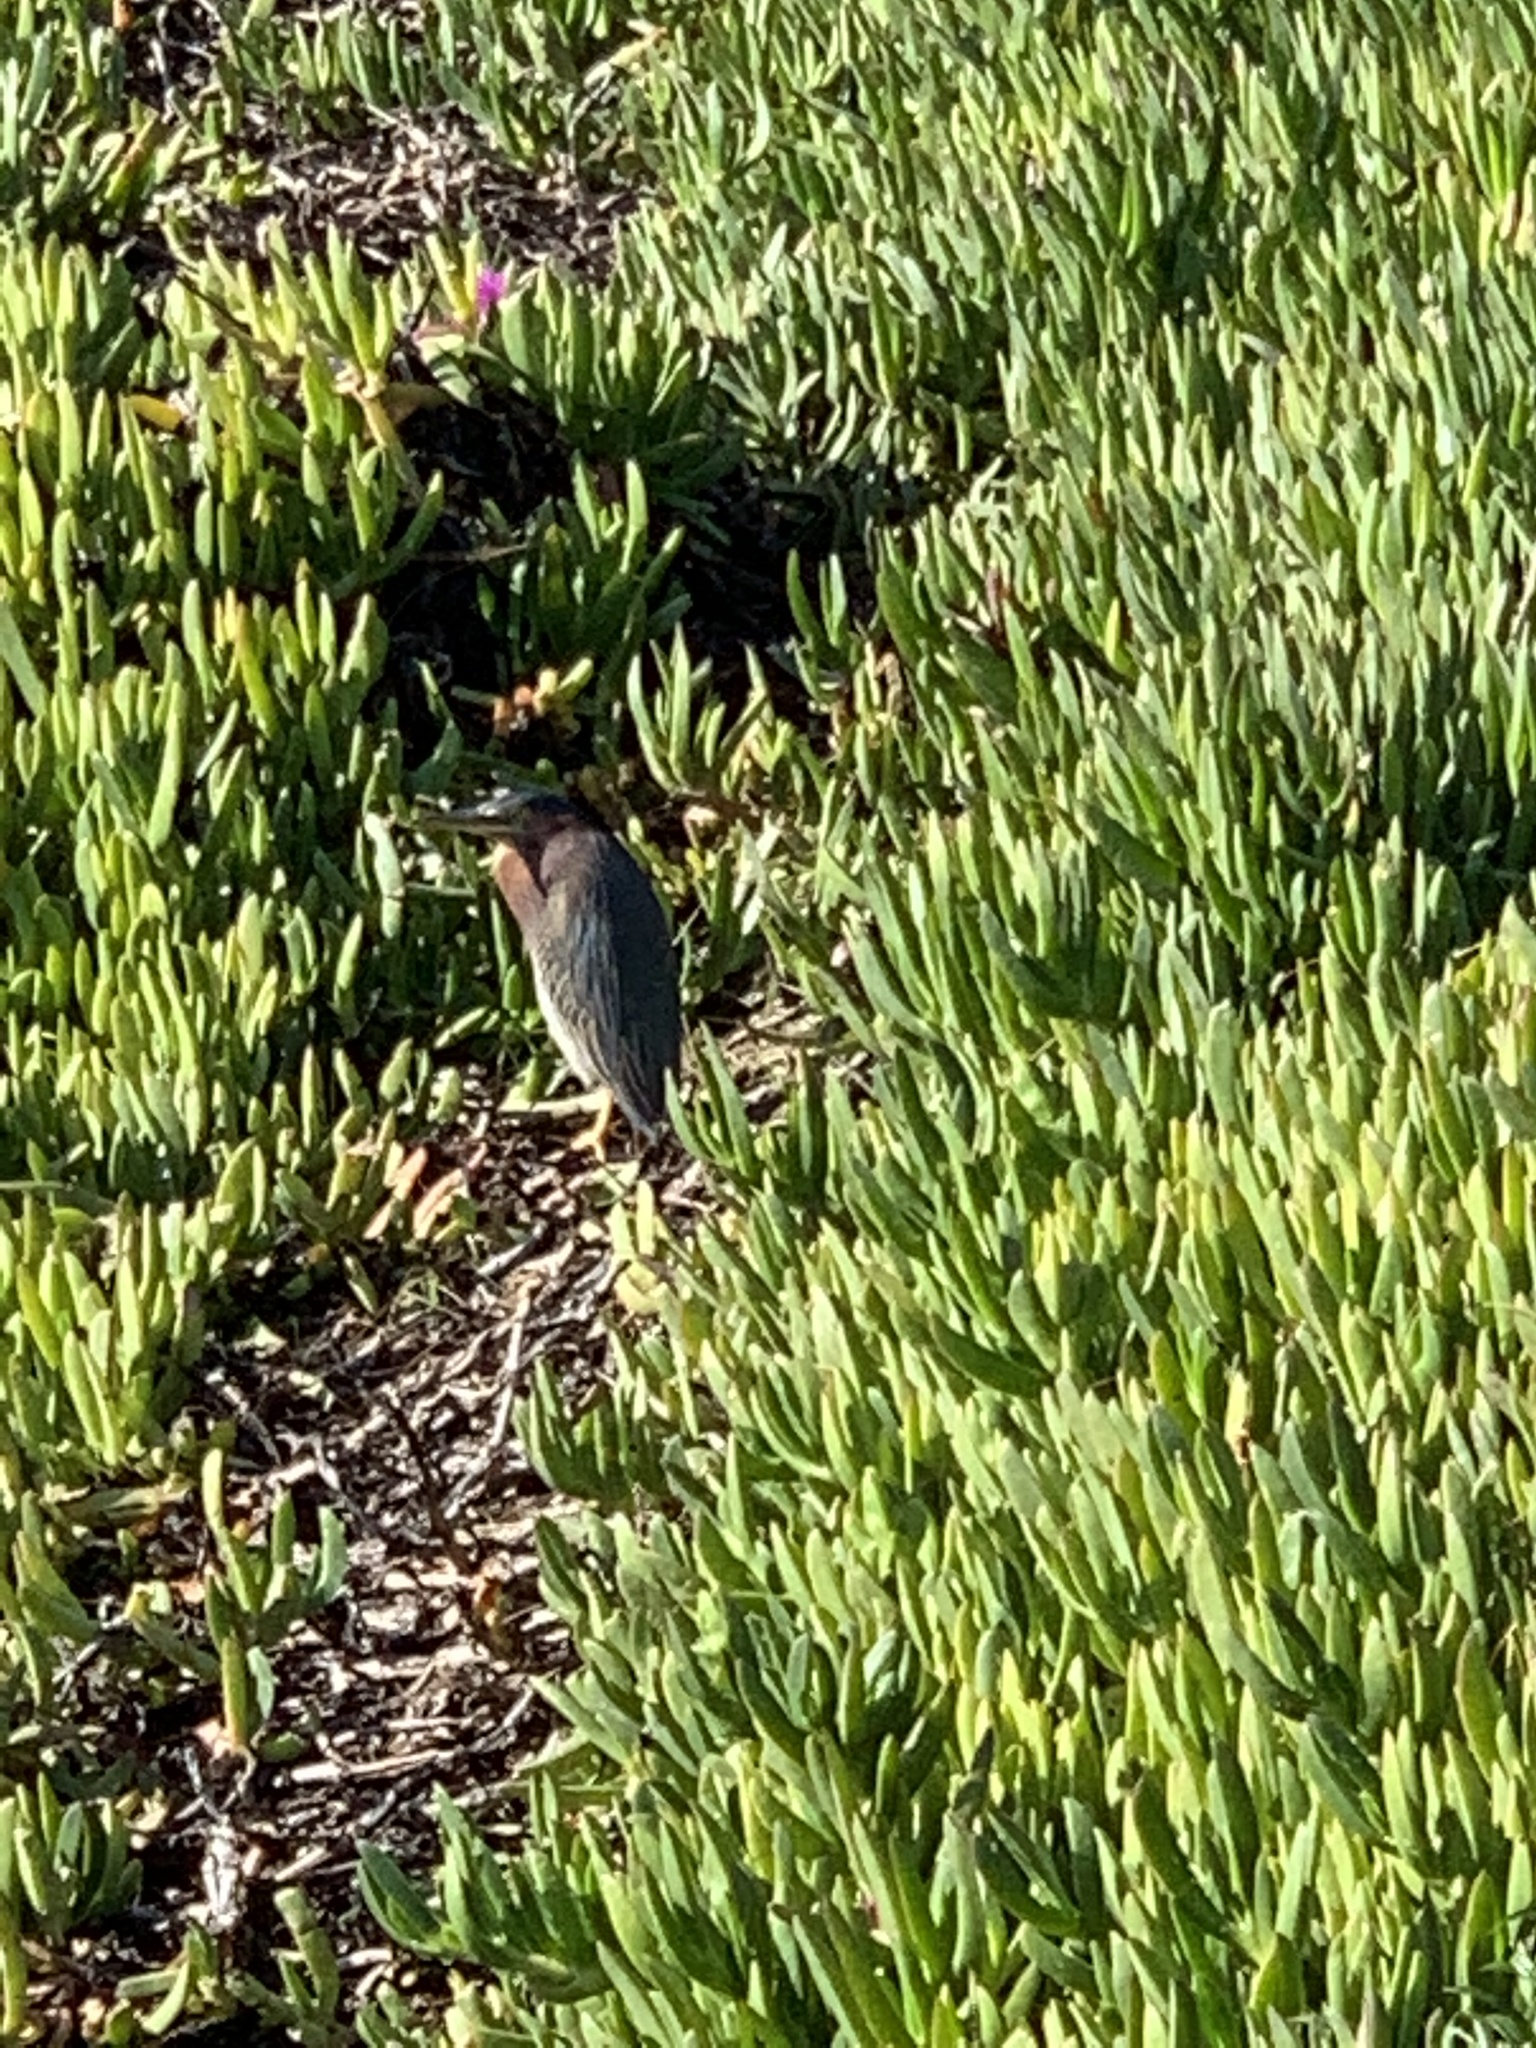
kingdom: Animalia
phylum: Chordata
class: Aves
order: Pelecaniformes
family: Ardeidae
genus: Butorides
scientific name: Butorides virescens
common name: Green heron
